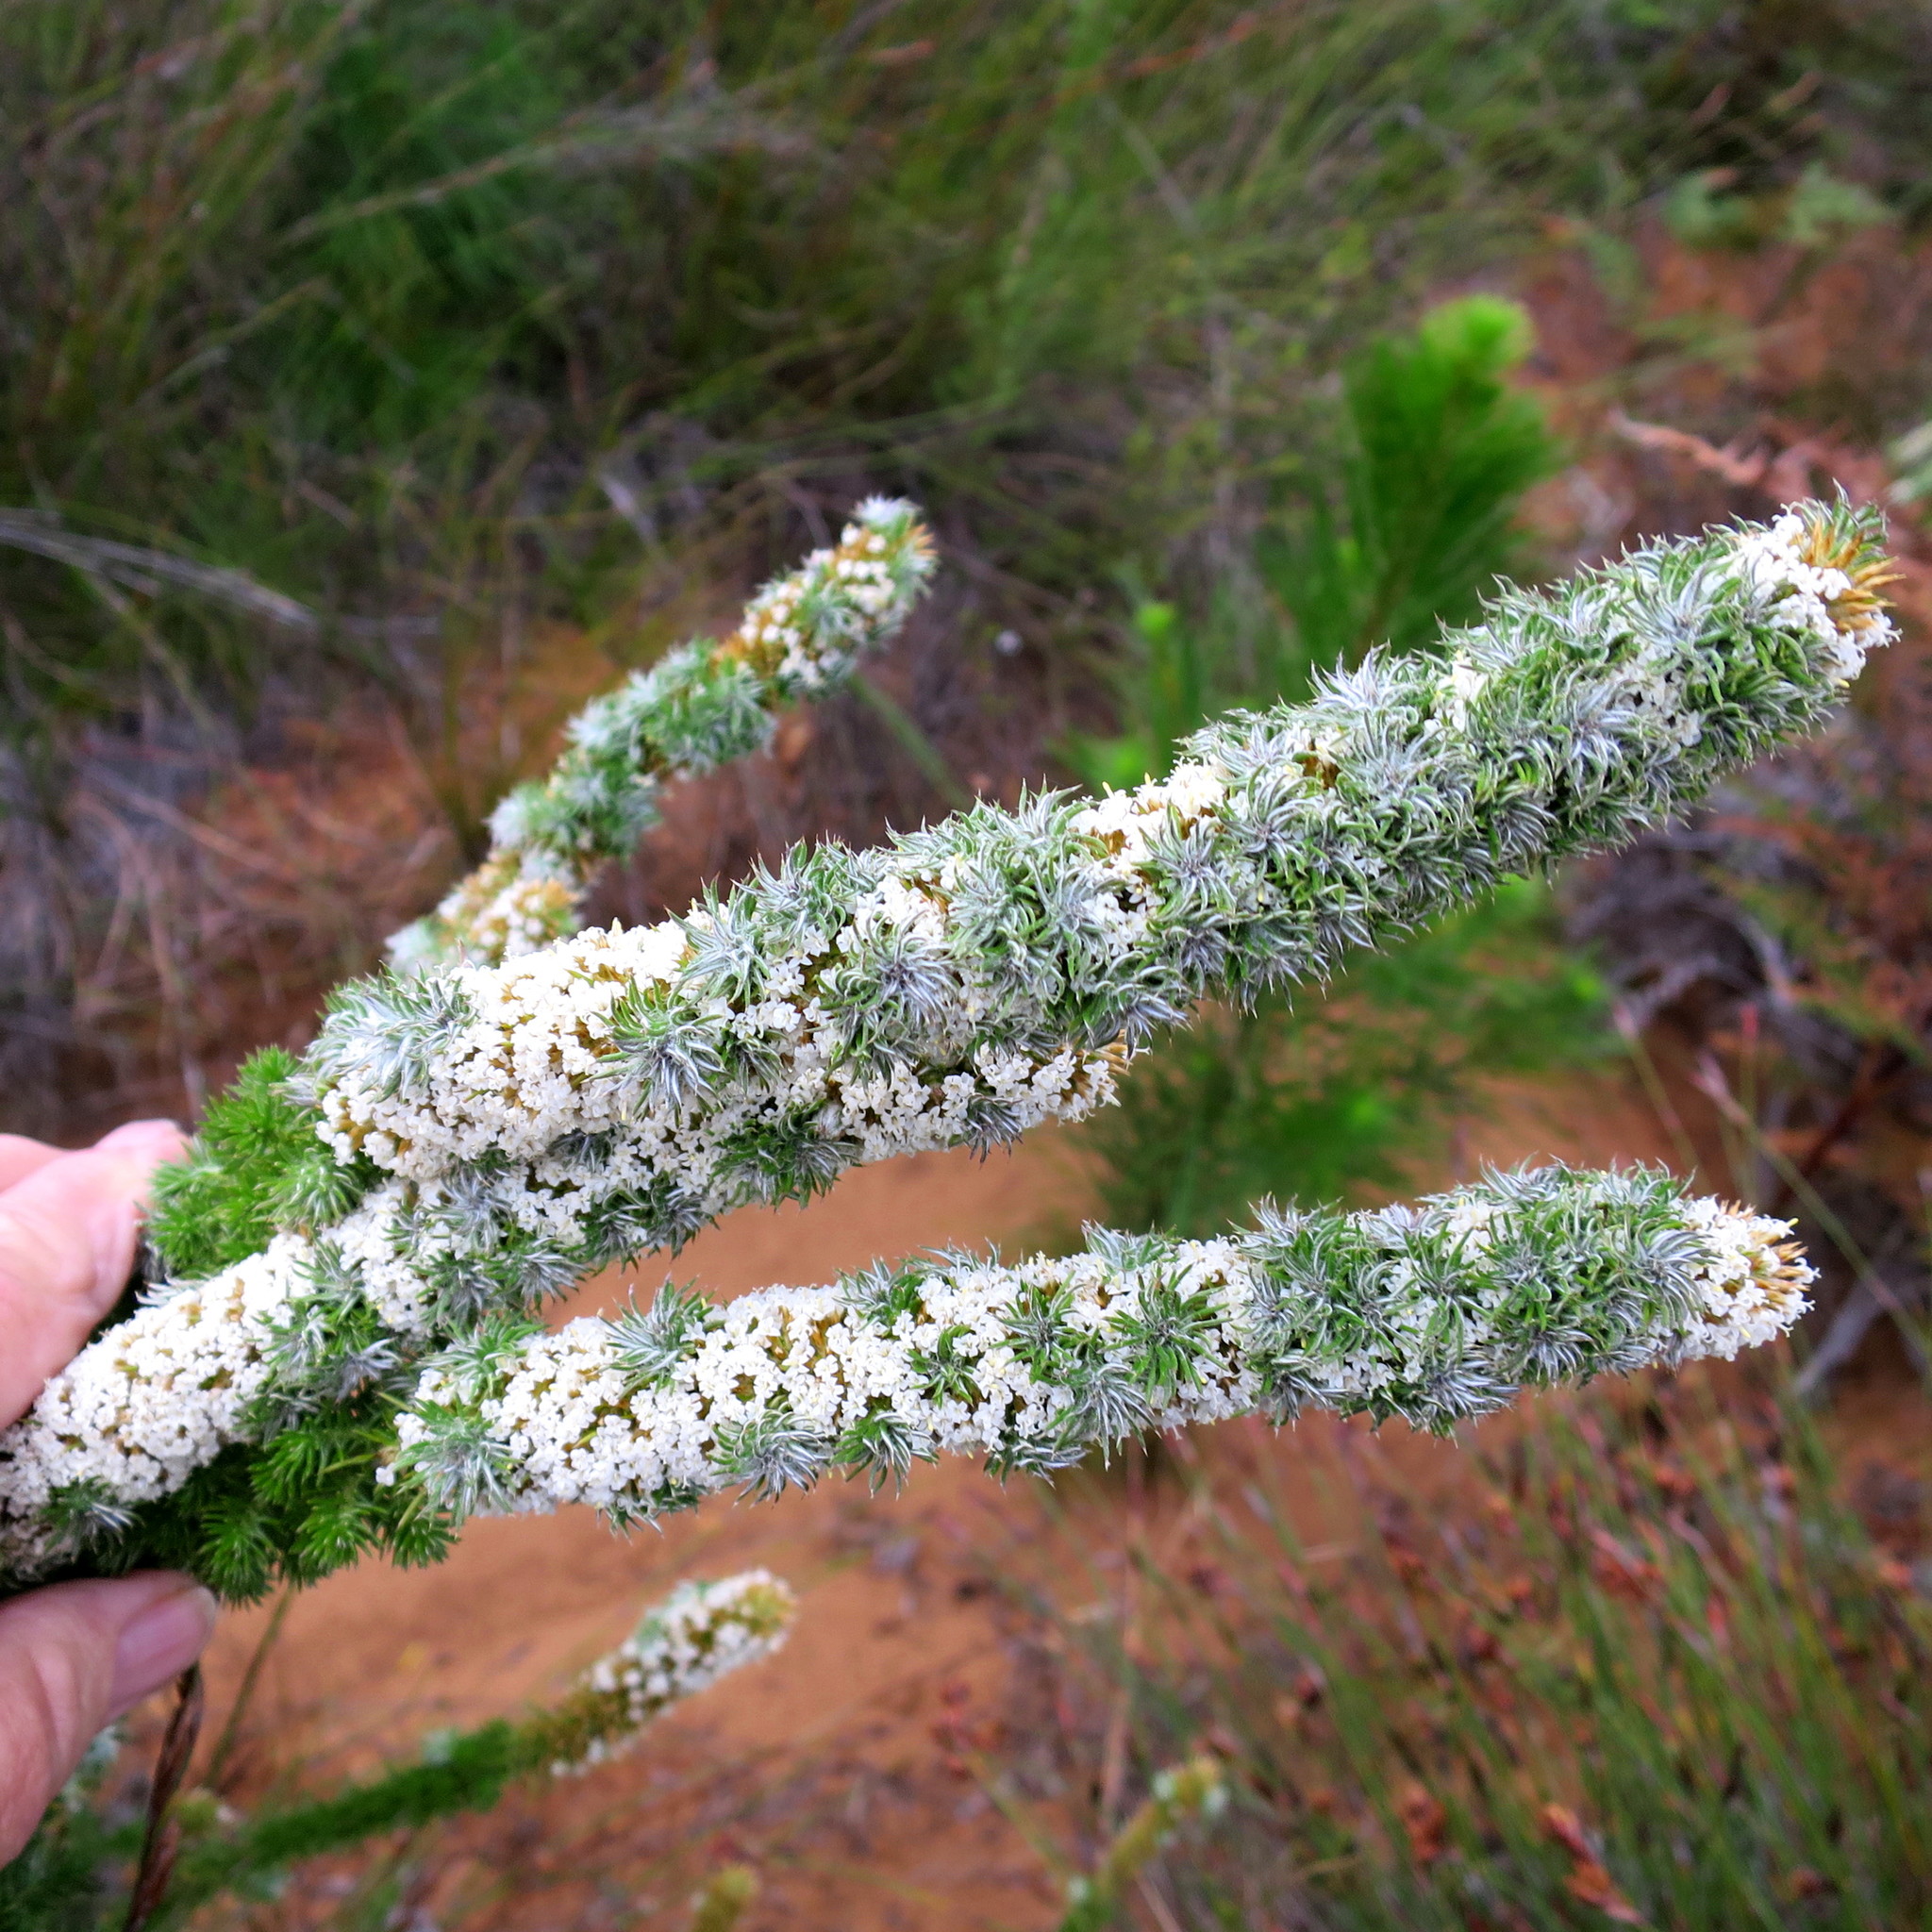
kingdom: Plantae
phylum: Tracheophyta
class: Magnoliopsida
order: Asterales
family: Asteraceae
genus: Stoebe
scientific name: Stoebe alopecuroides
